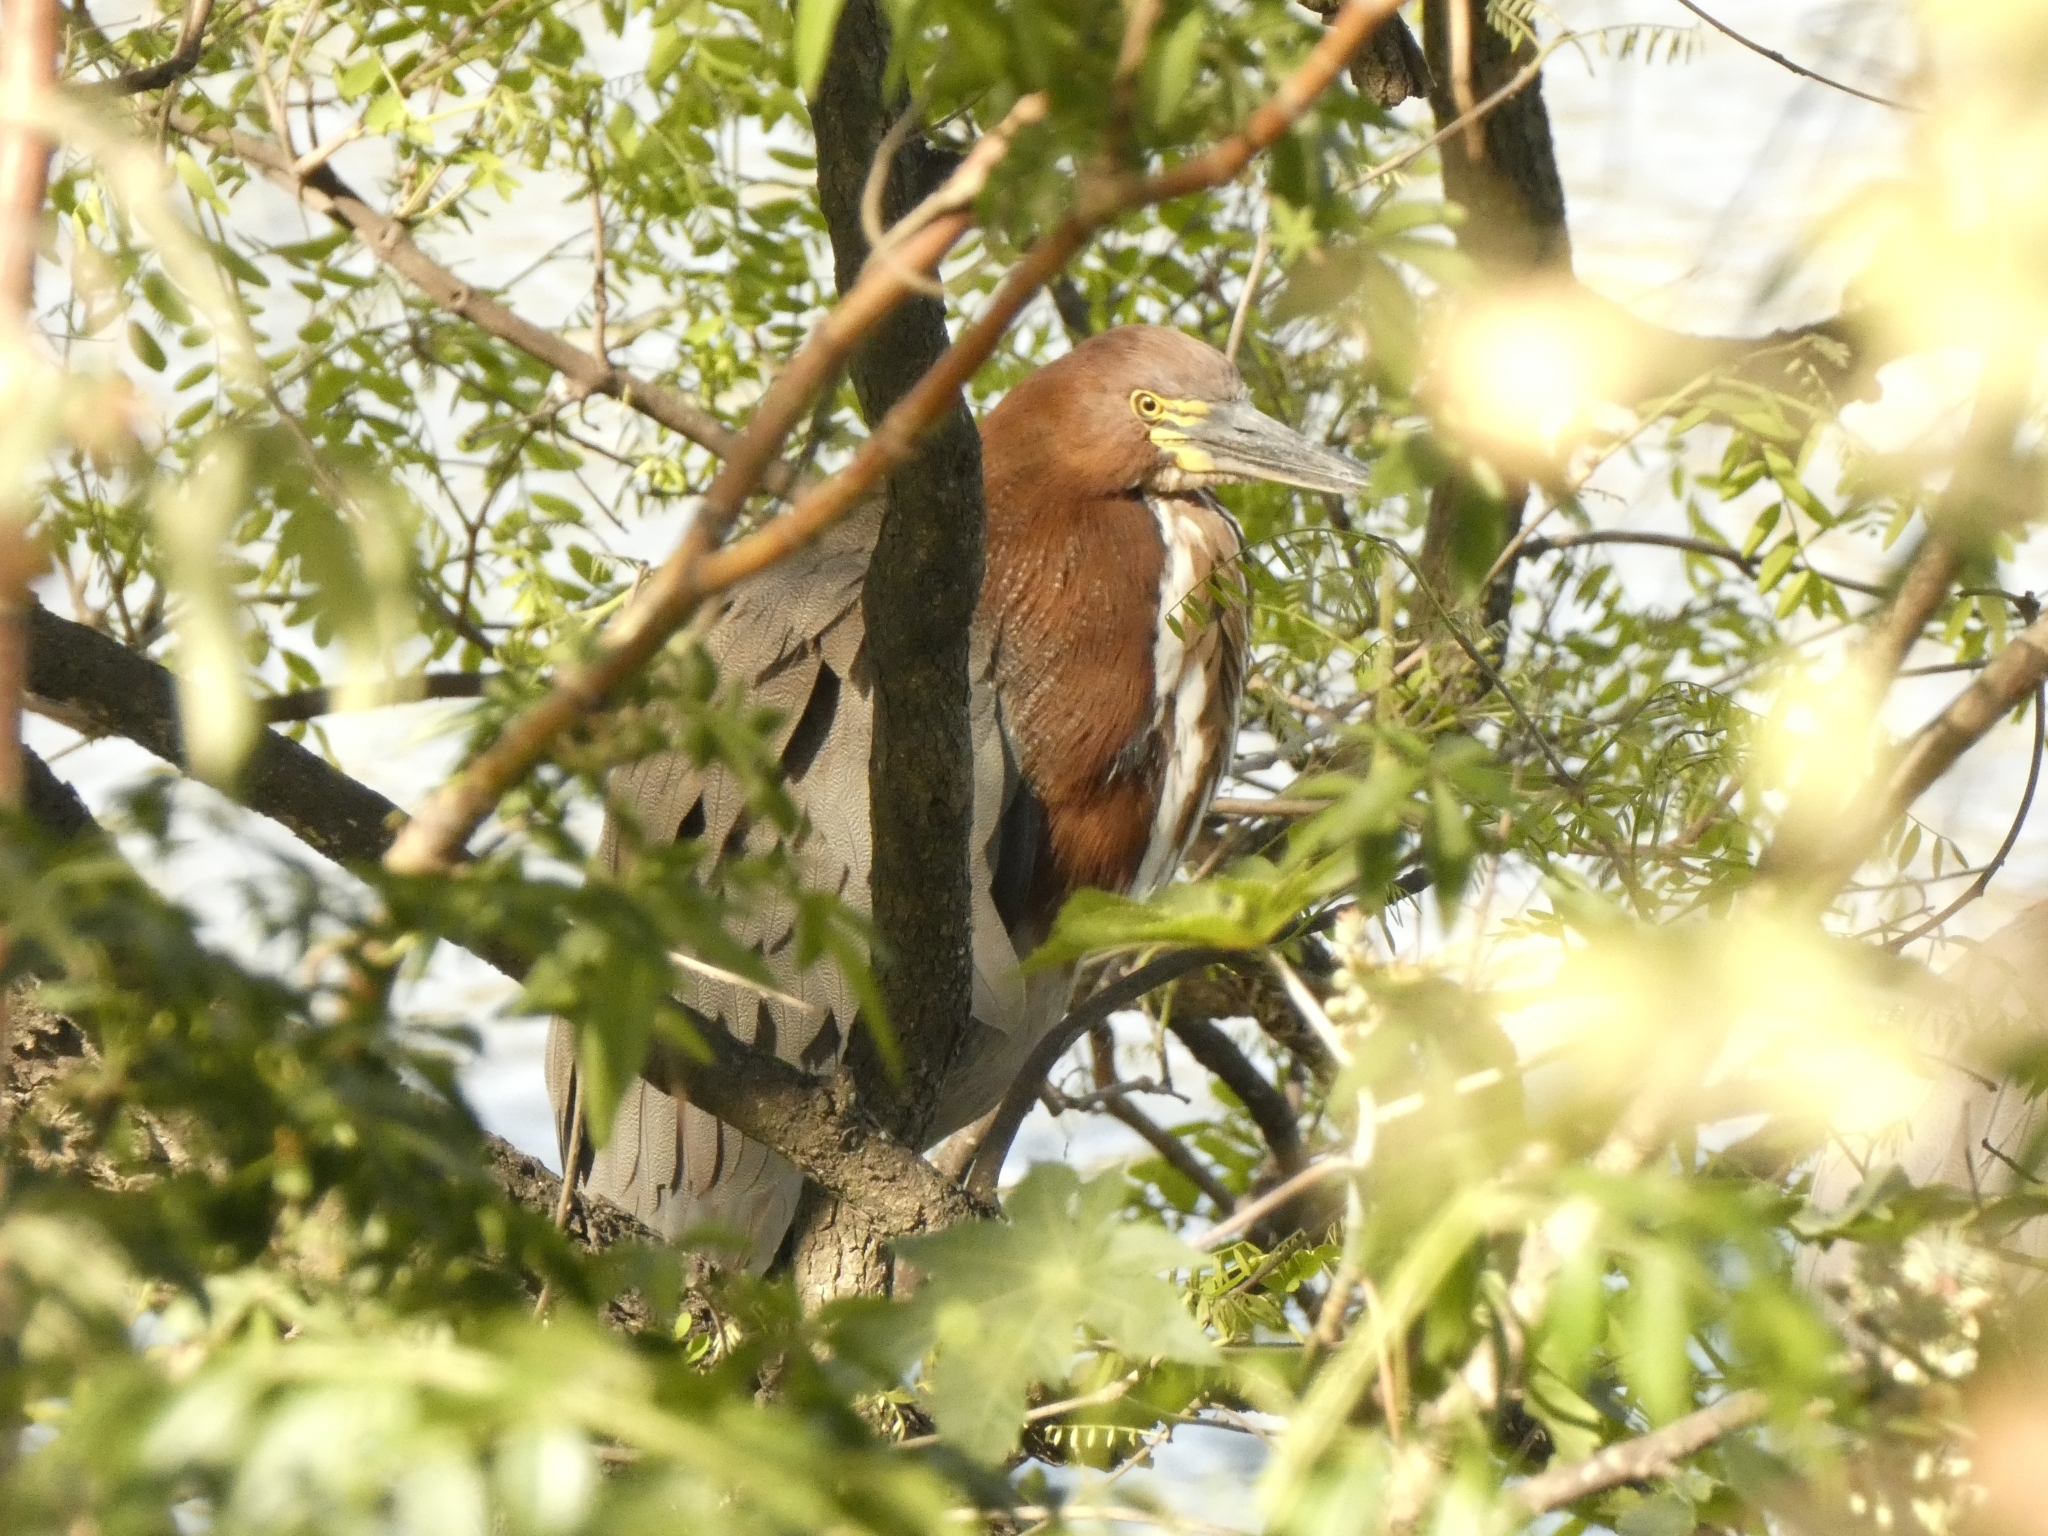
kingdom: Animalia
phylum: Chordata
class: Aves
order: Pelecaniformes
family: Ardeidae
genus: Tigrisoma
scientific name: Tigrisoma lineatum
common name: Rufescent tiger-heron
